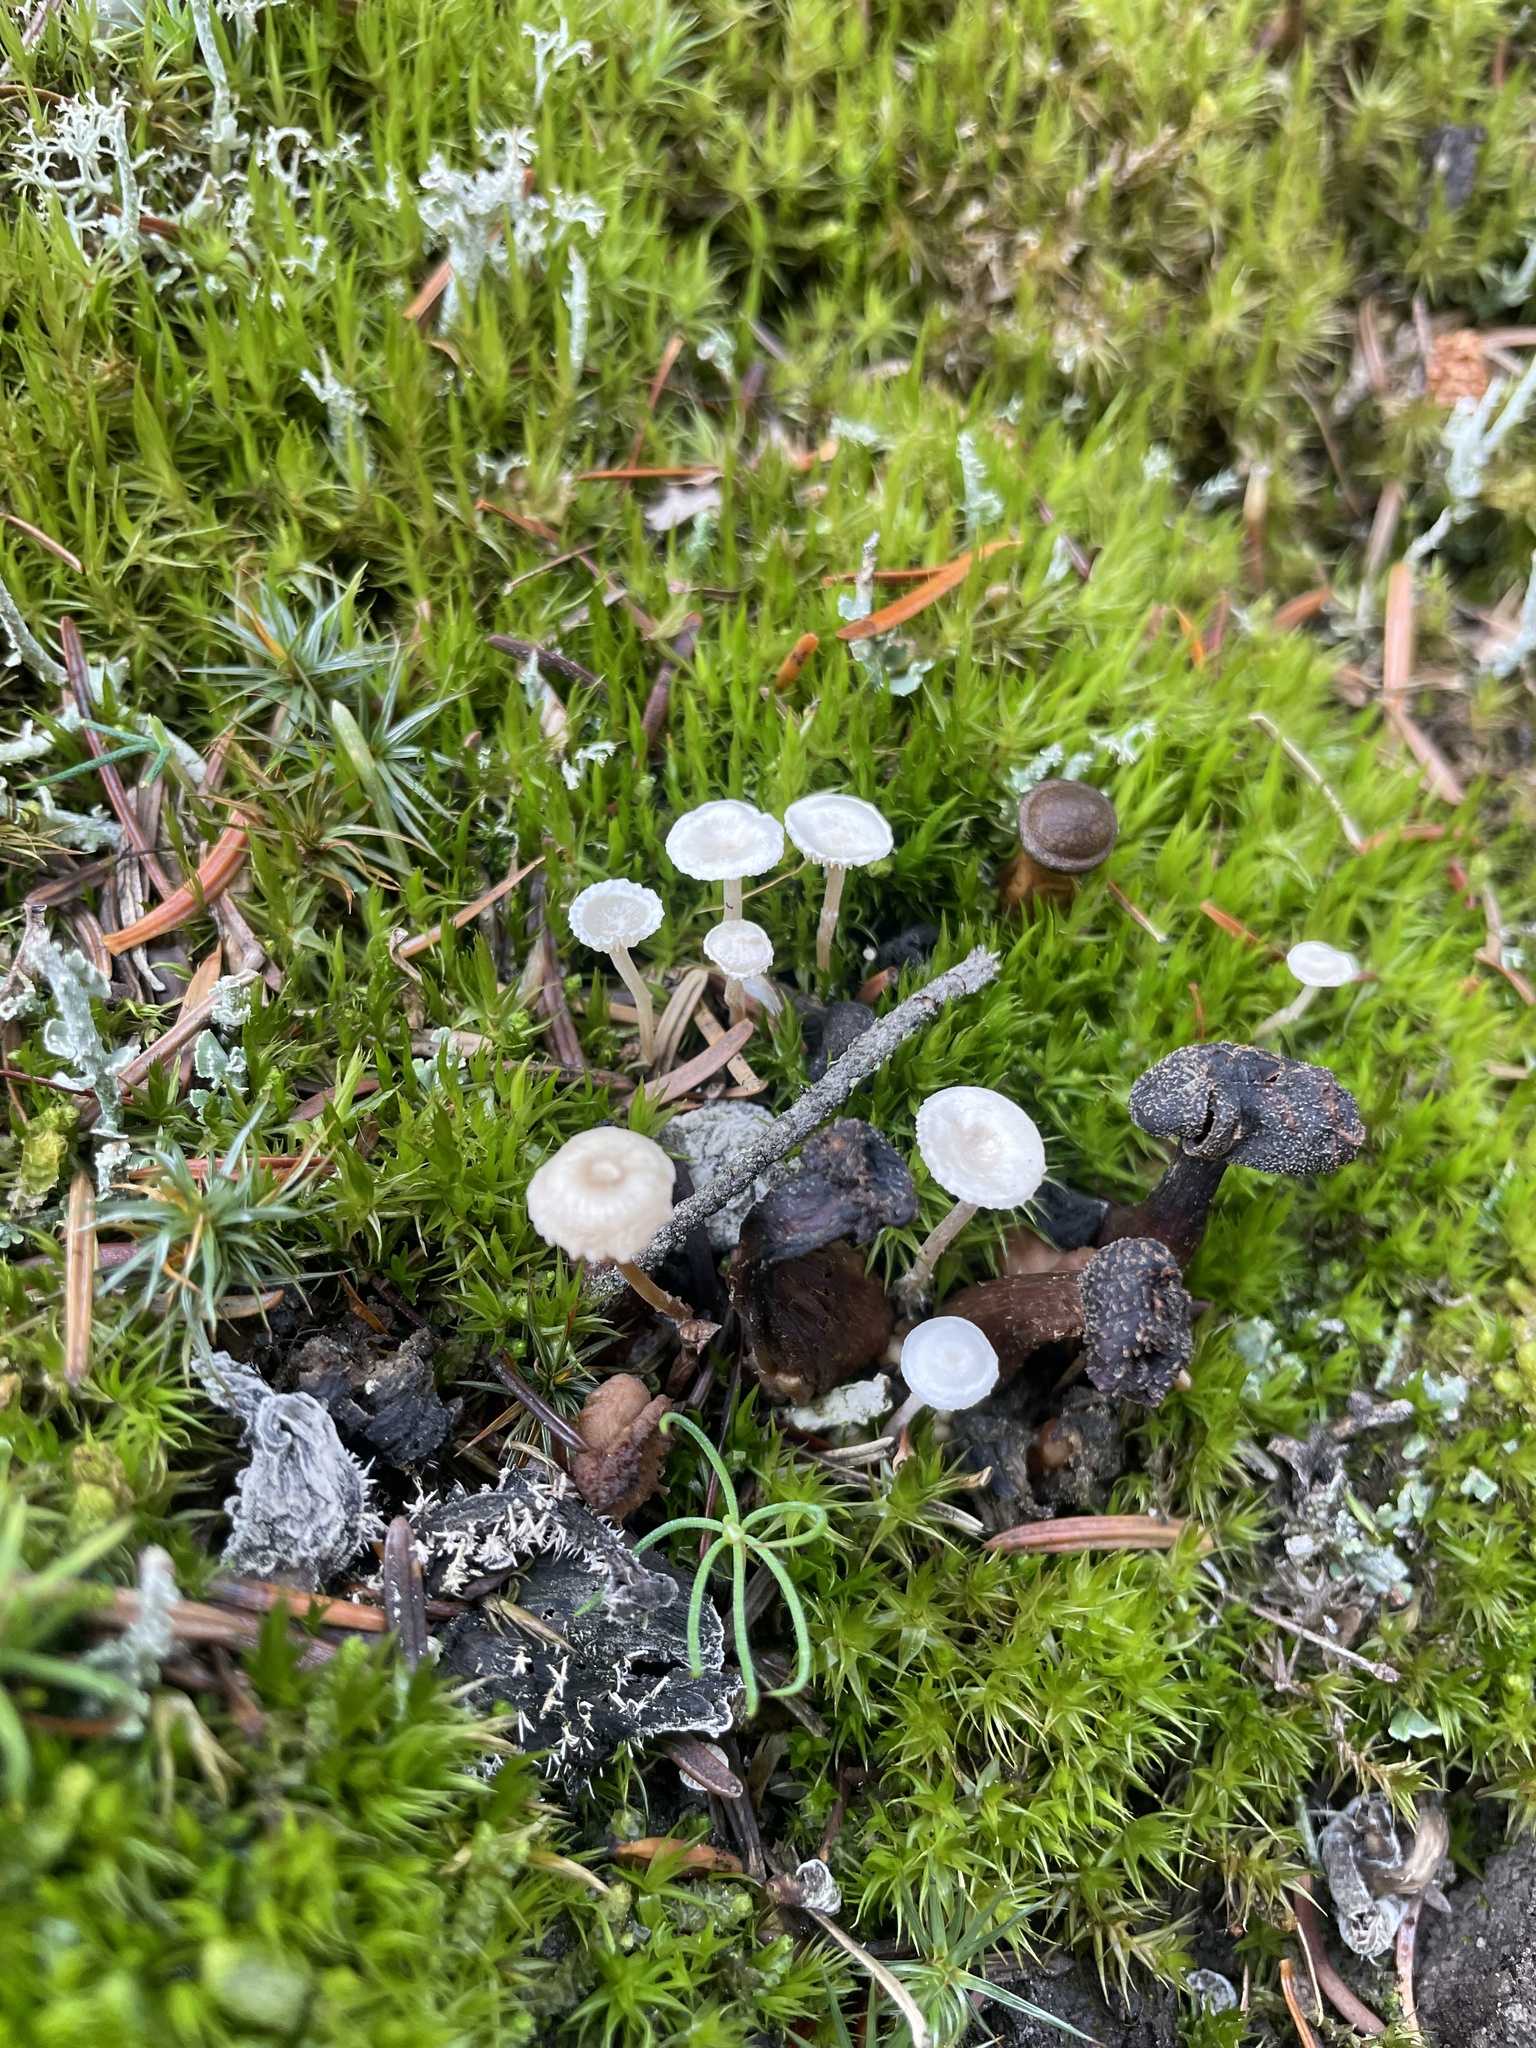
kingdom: Fungi
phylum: Basidiomycota
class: Agaricomycetes
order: Agaricales
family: Tricholomataceae
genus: Collybia
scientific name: Collybia cirrhata
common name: Piggyback shanklet
